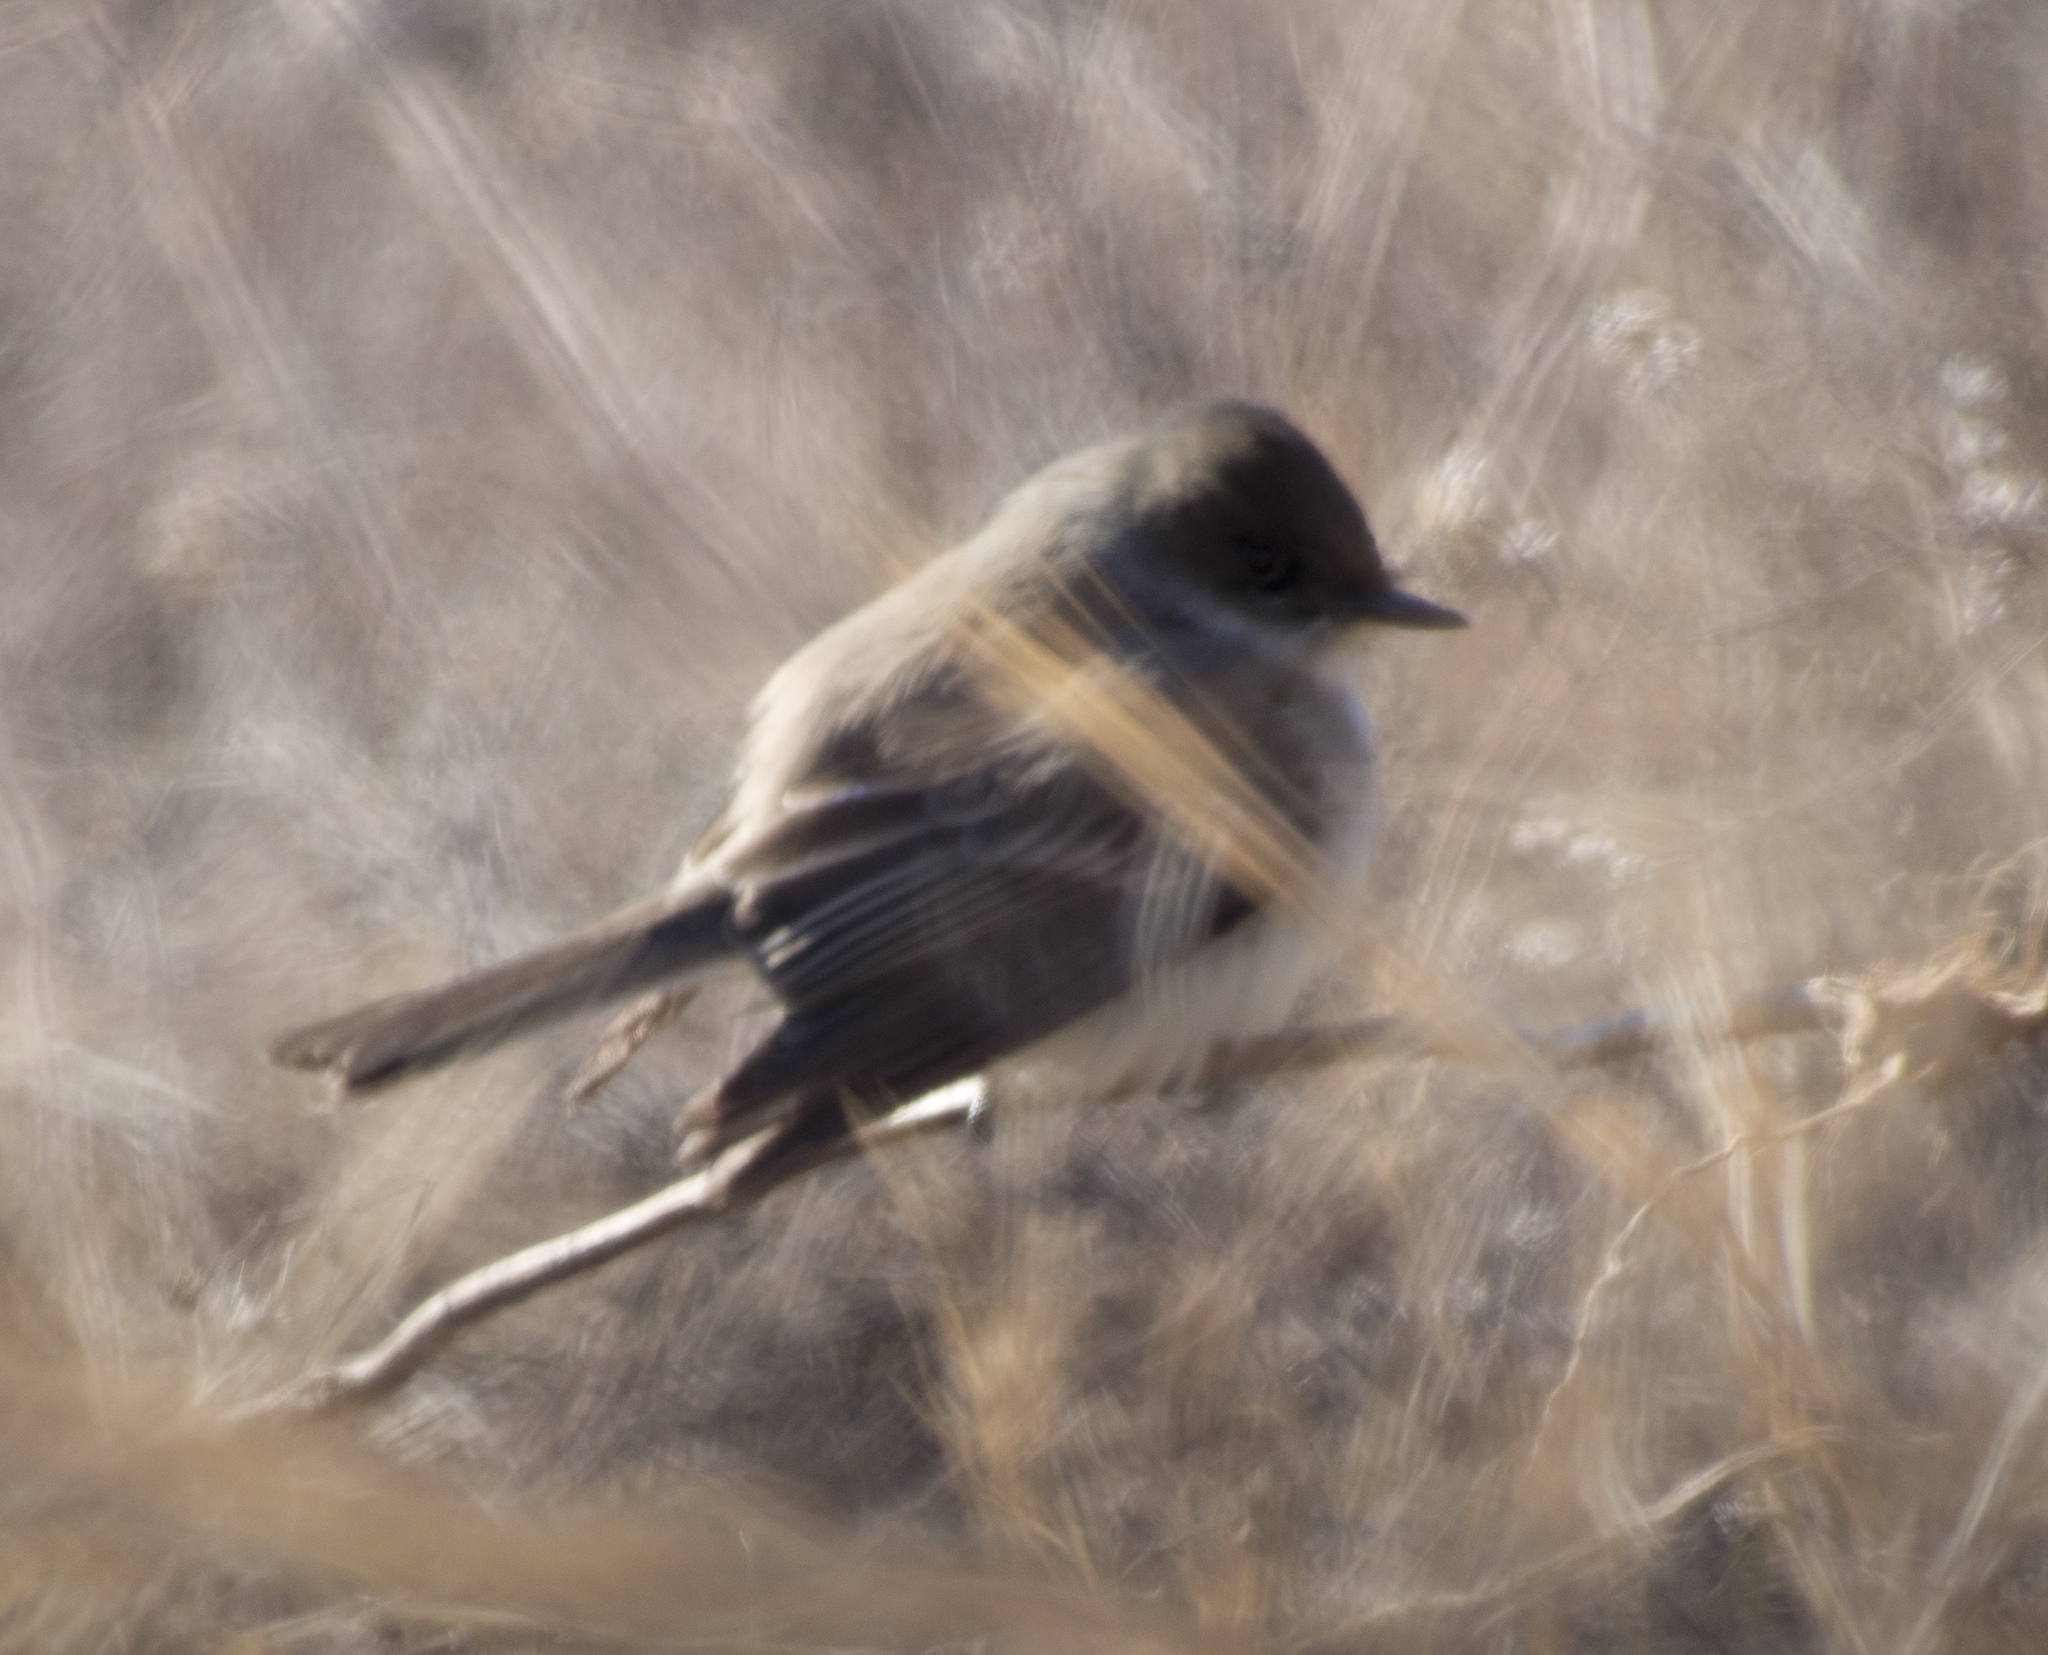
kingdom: Animalia
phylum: Chordata
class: Aves
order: Passeriformes
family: Tyrannidae
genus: Sayornis
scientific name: Sayornis phoebe
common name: Eastern phoebe
